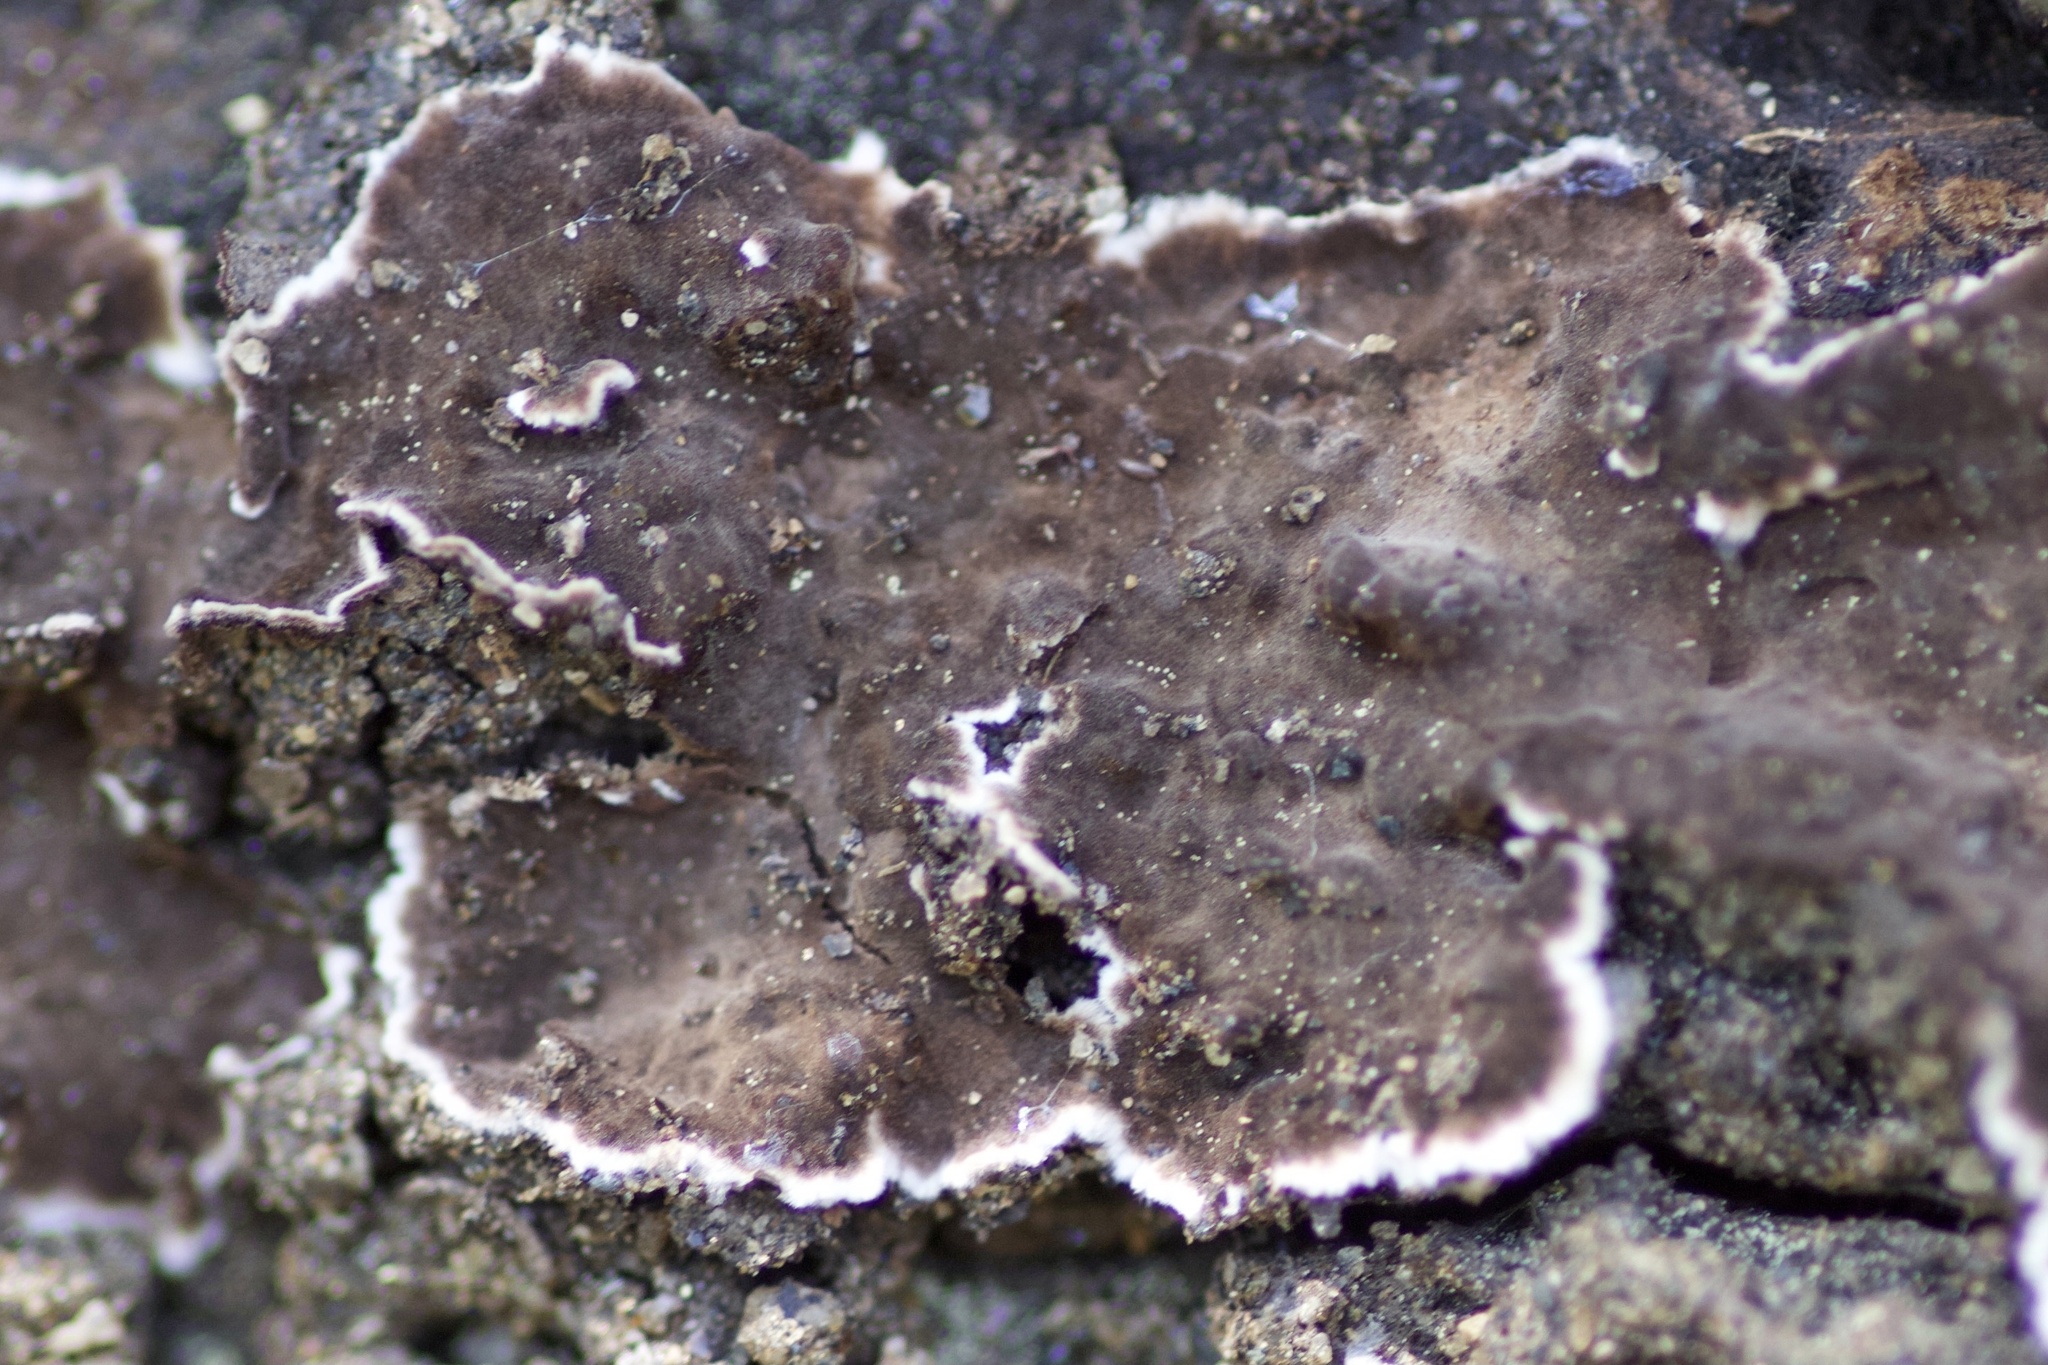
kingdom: Fungi
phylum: Basidiomycota
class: Agaricomycetes
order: Russulales
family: Peniophoraceae
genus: Peniophora
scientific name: Peniophora albobadia
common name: Giraffe spots
